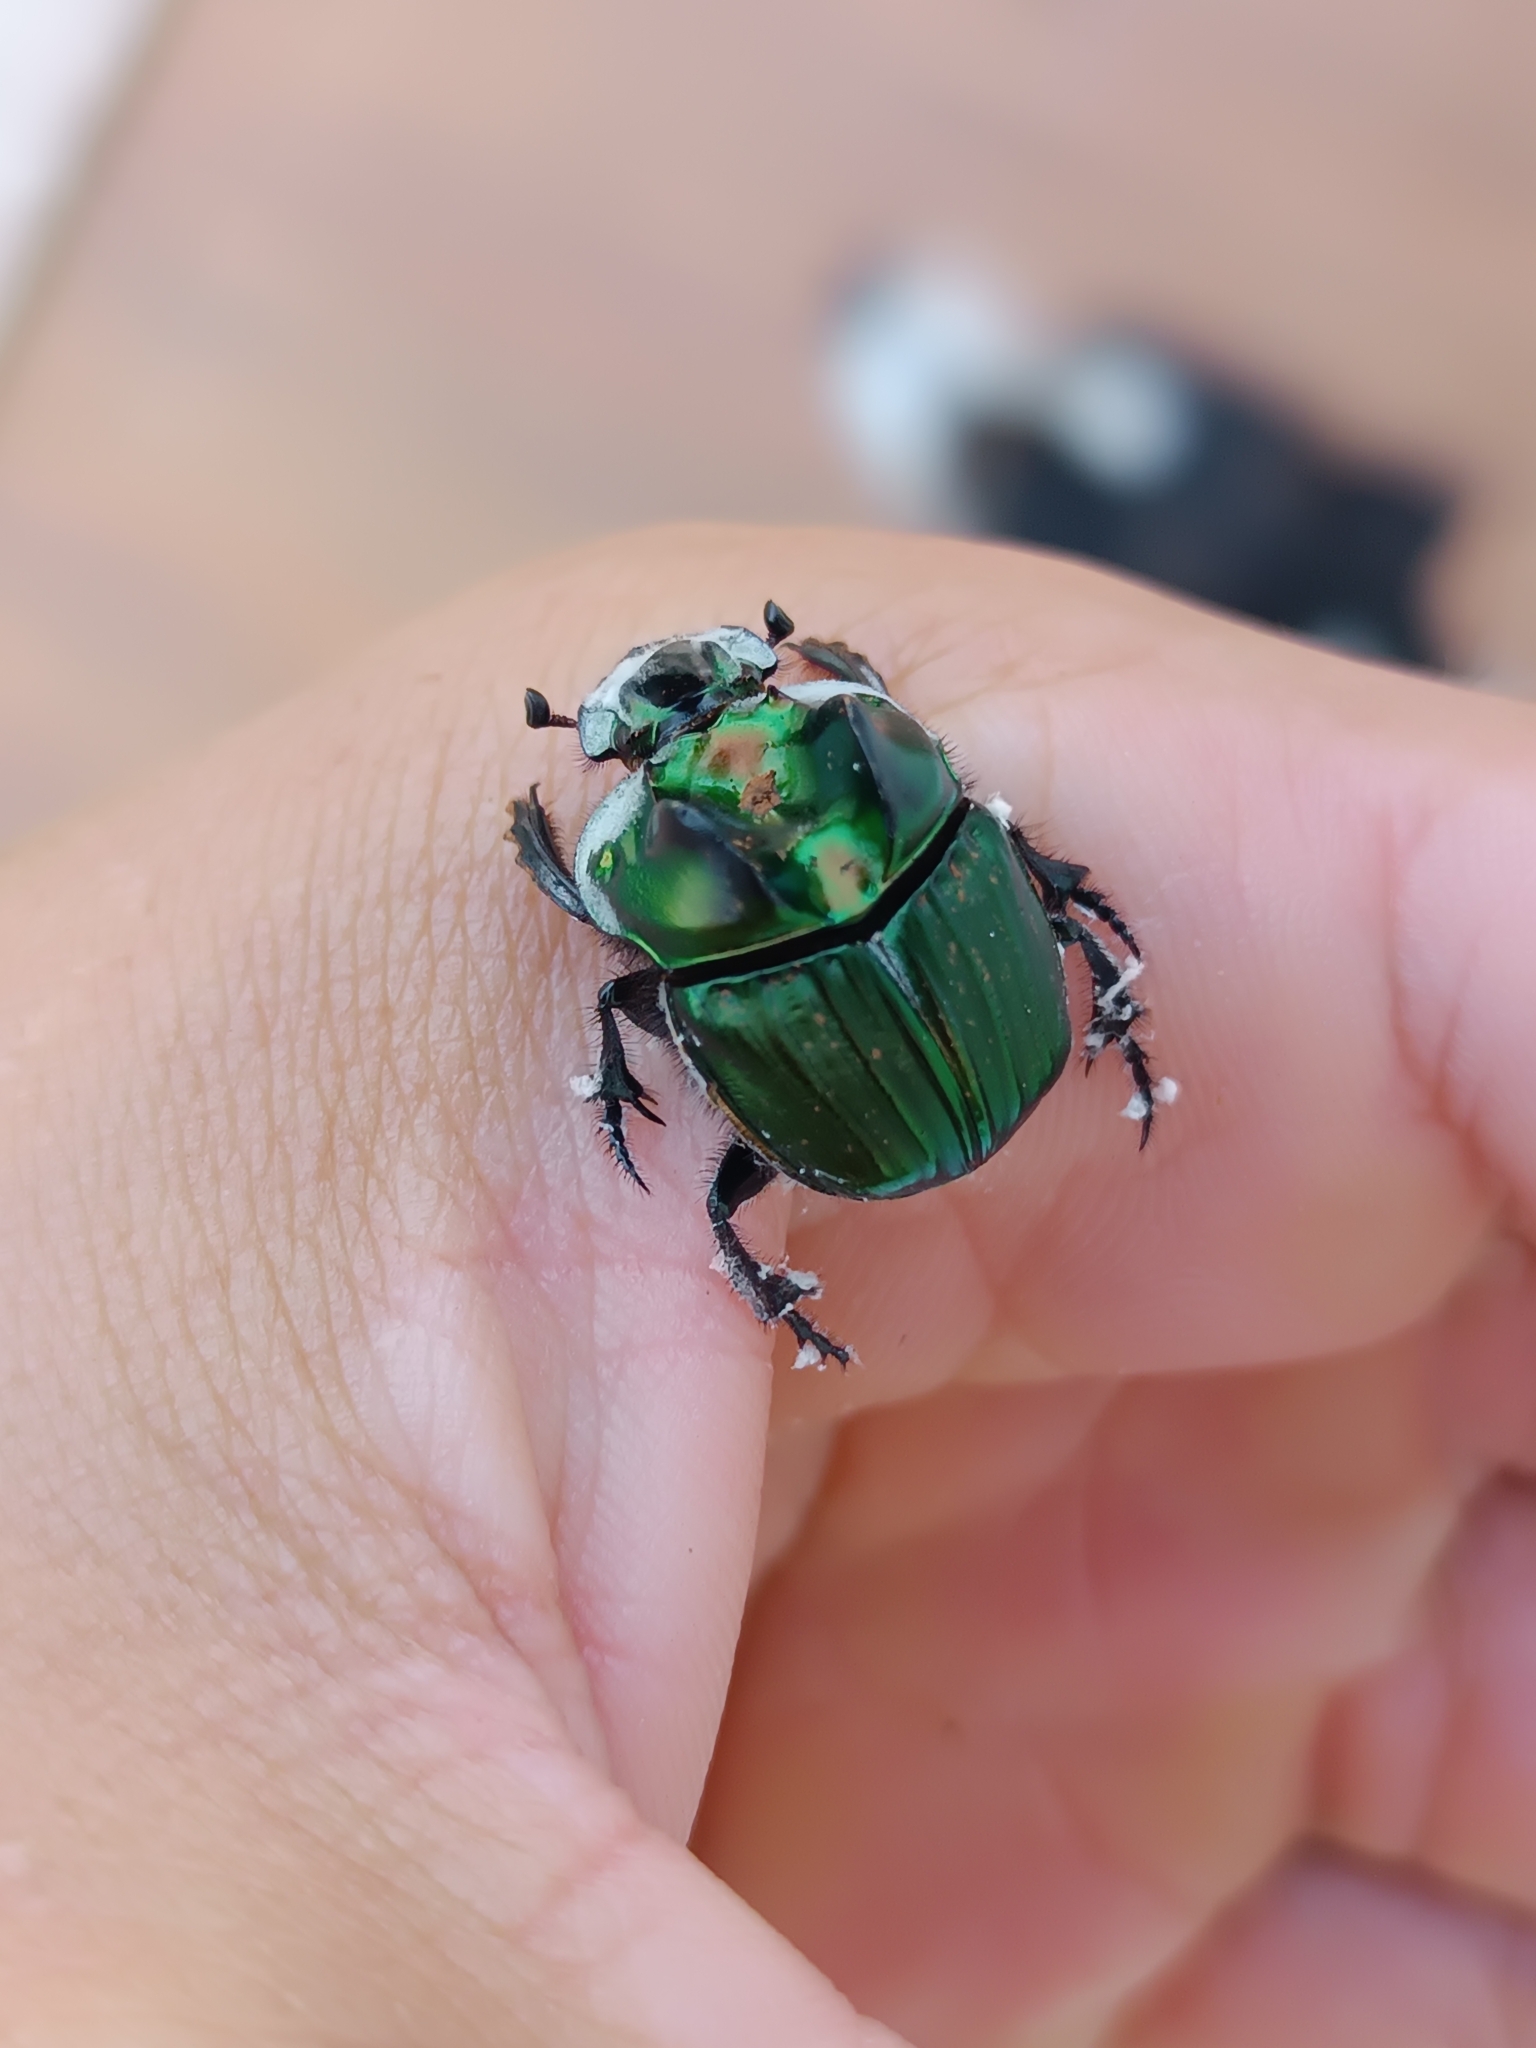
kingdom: Animalia
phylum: Arthropoda
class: Insecta
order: Coleoptera
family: Scarabaeidae
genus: Sulcophanaeus
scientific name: Sulcophanaeus menelas
